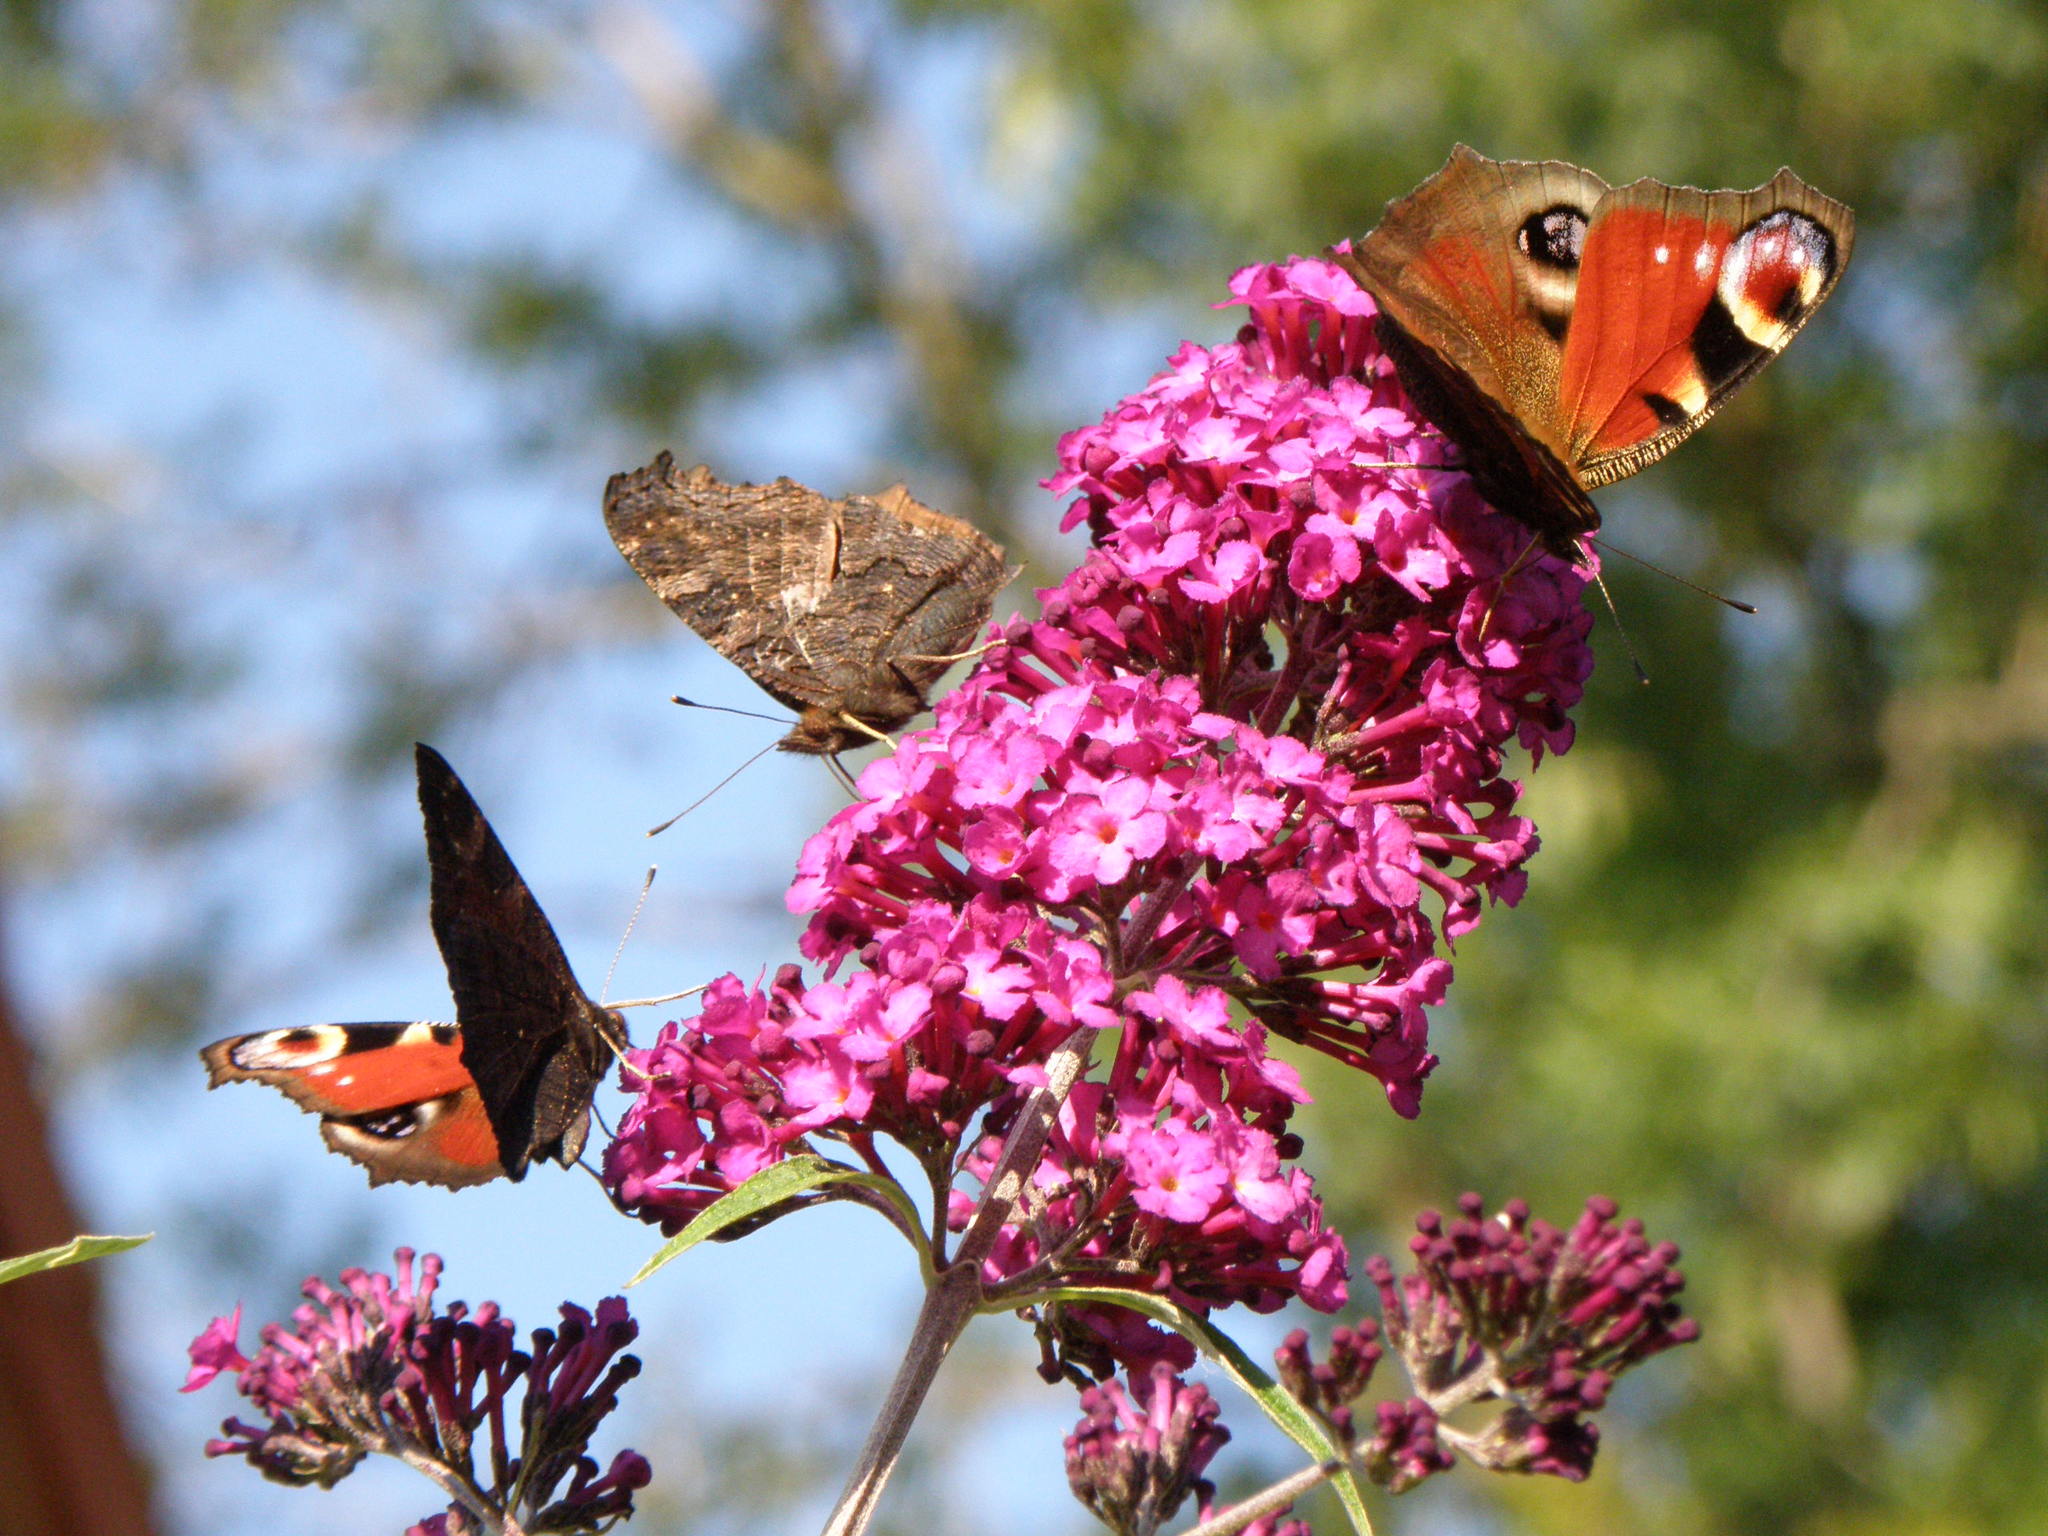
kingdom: Animalia
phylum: Arthropoda
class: Insecta
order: Lepidoptera
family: Nymphalidae
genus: Aglais
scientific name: Aglais io
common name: Peacock
